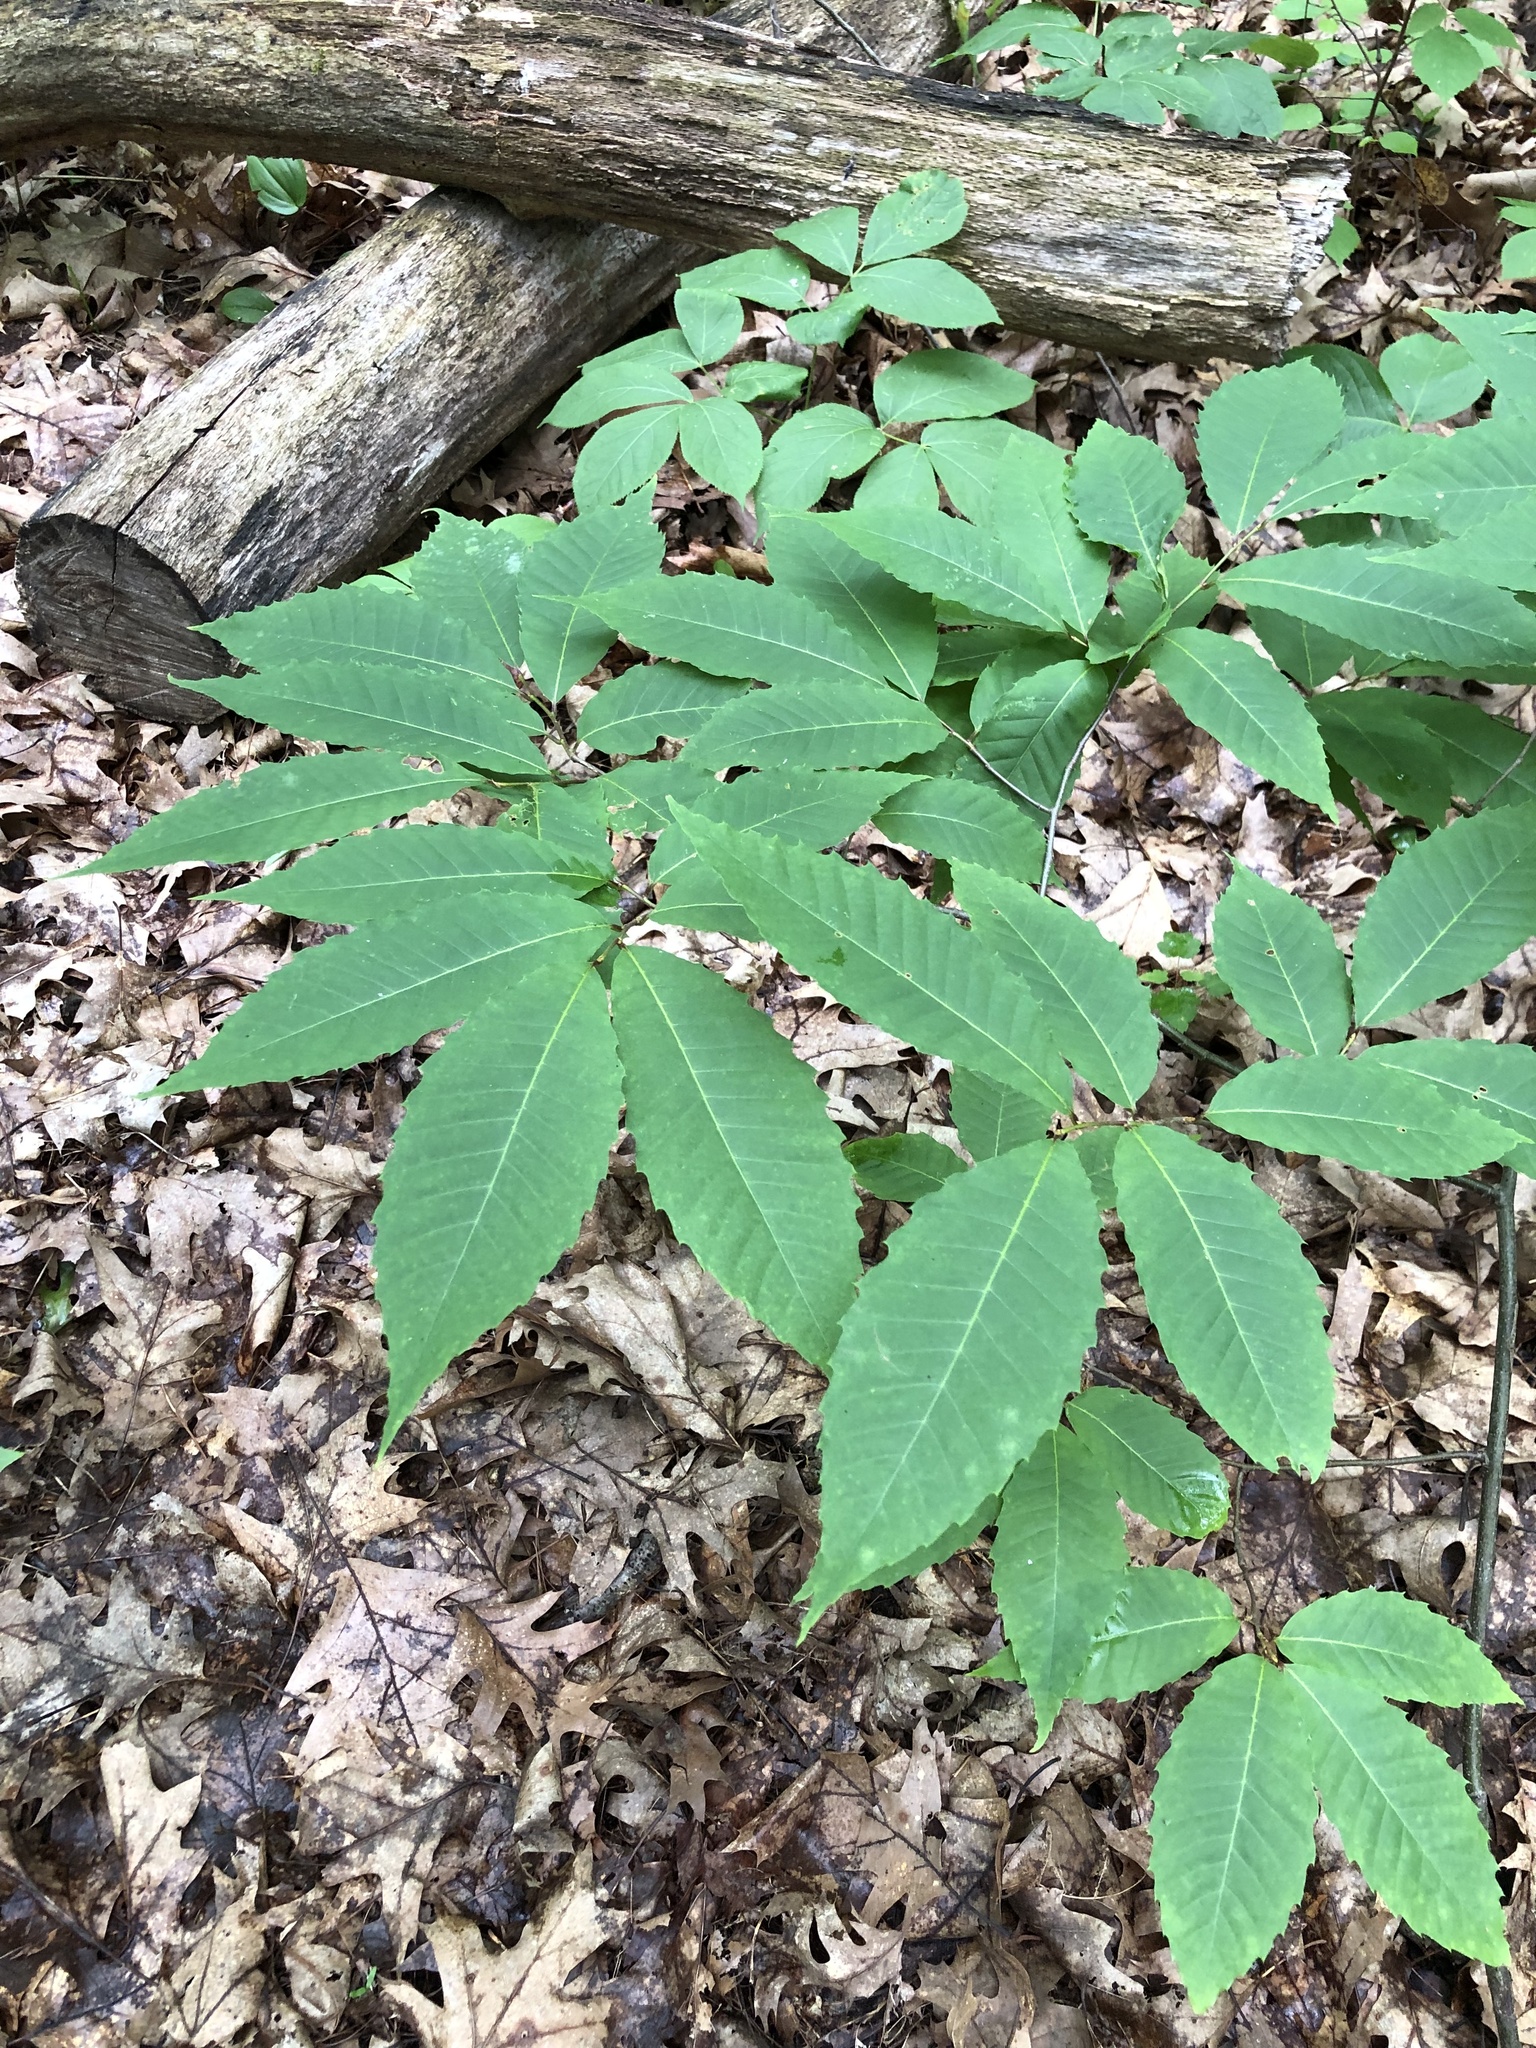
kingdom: Plantae
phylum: Tracheophyta
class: Magnoliopsida
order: Fagales
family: Fagaceae
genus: Castanea
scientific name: Castanea dentata
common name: American chestnut
